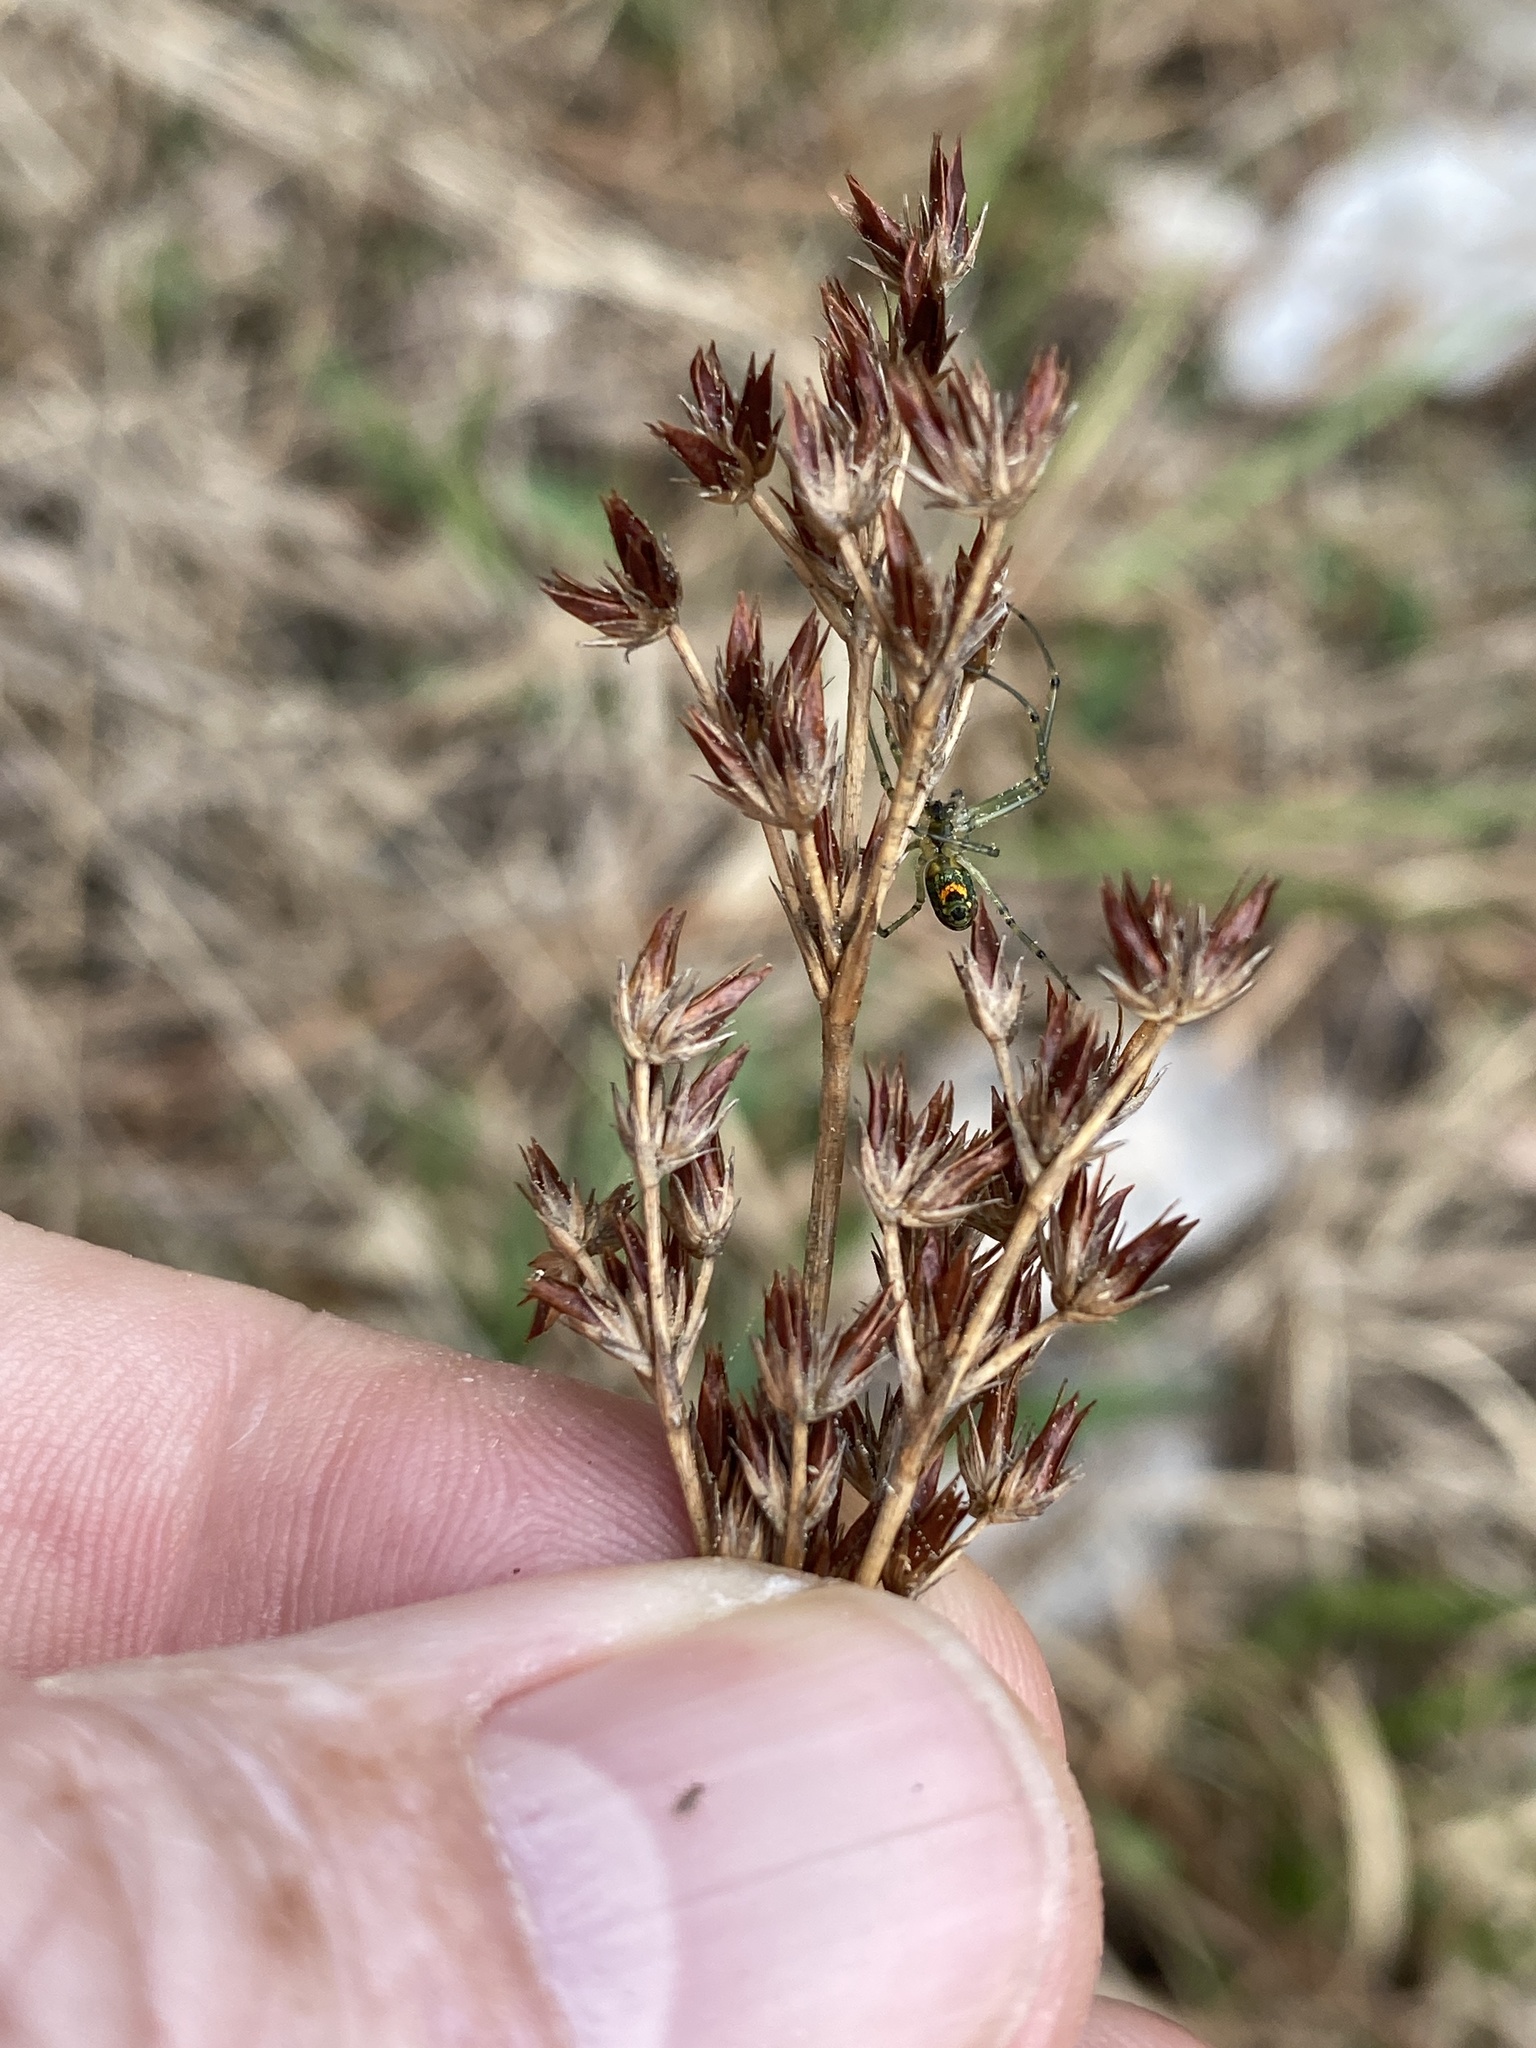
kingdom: Plantae
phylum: Tracheophyta
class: Liliopsida
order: Poales
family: Juncaceae
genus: Juncus
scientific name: Juncus trigonocarpus
